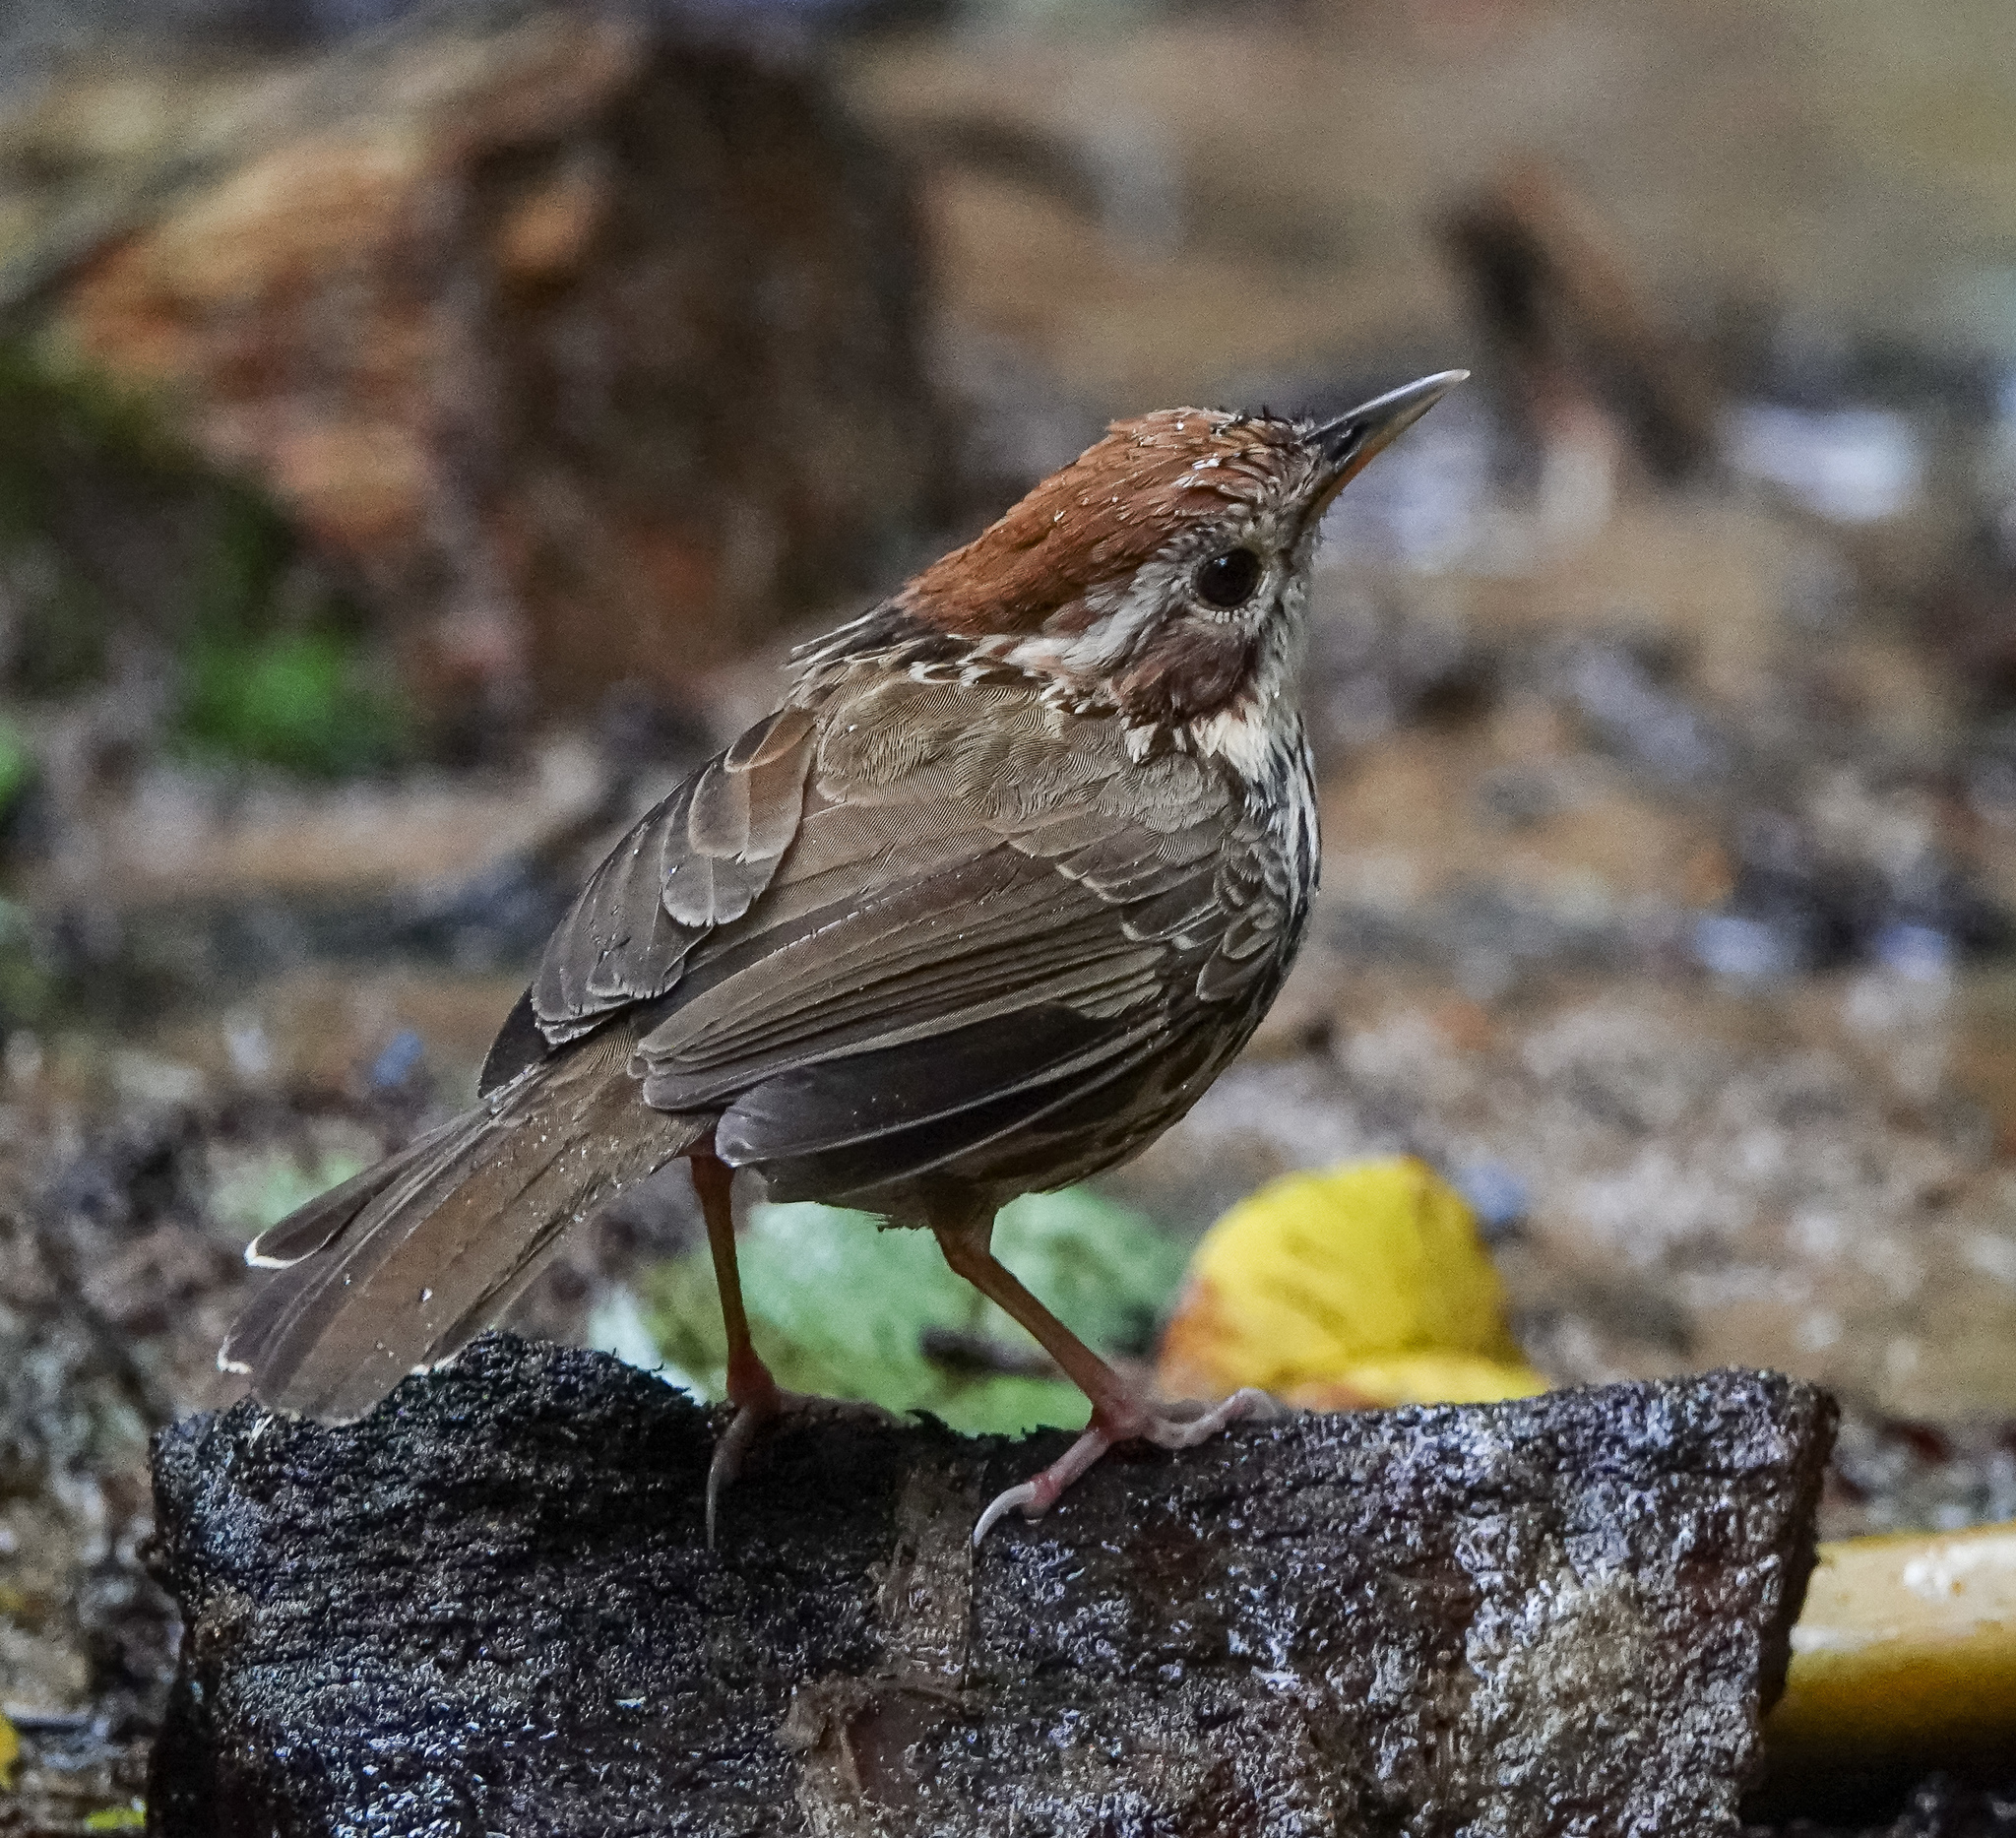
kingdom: Animalia
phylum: Chordata
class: Aves
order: Passeriformes
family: Pellorneidae
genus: Pellorneum
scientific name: Pellorneum ruficeps
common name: Puff-throated babbler
